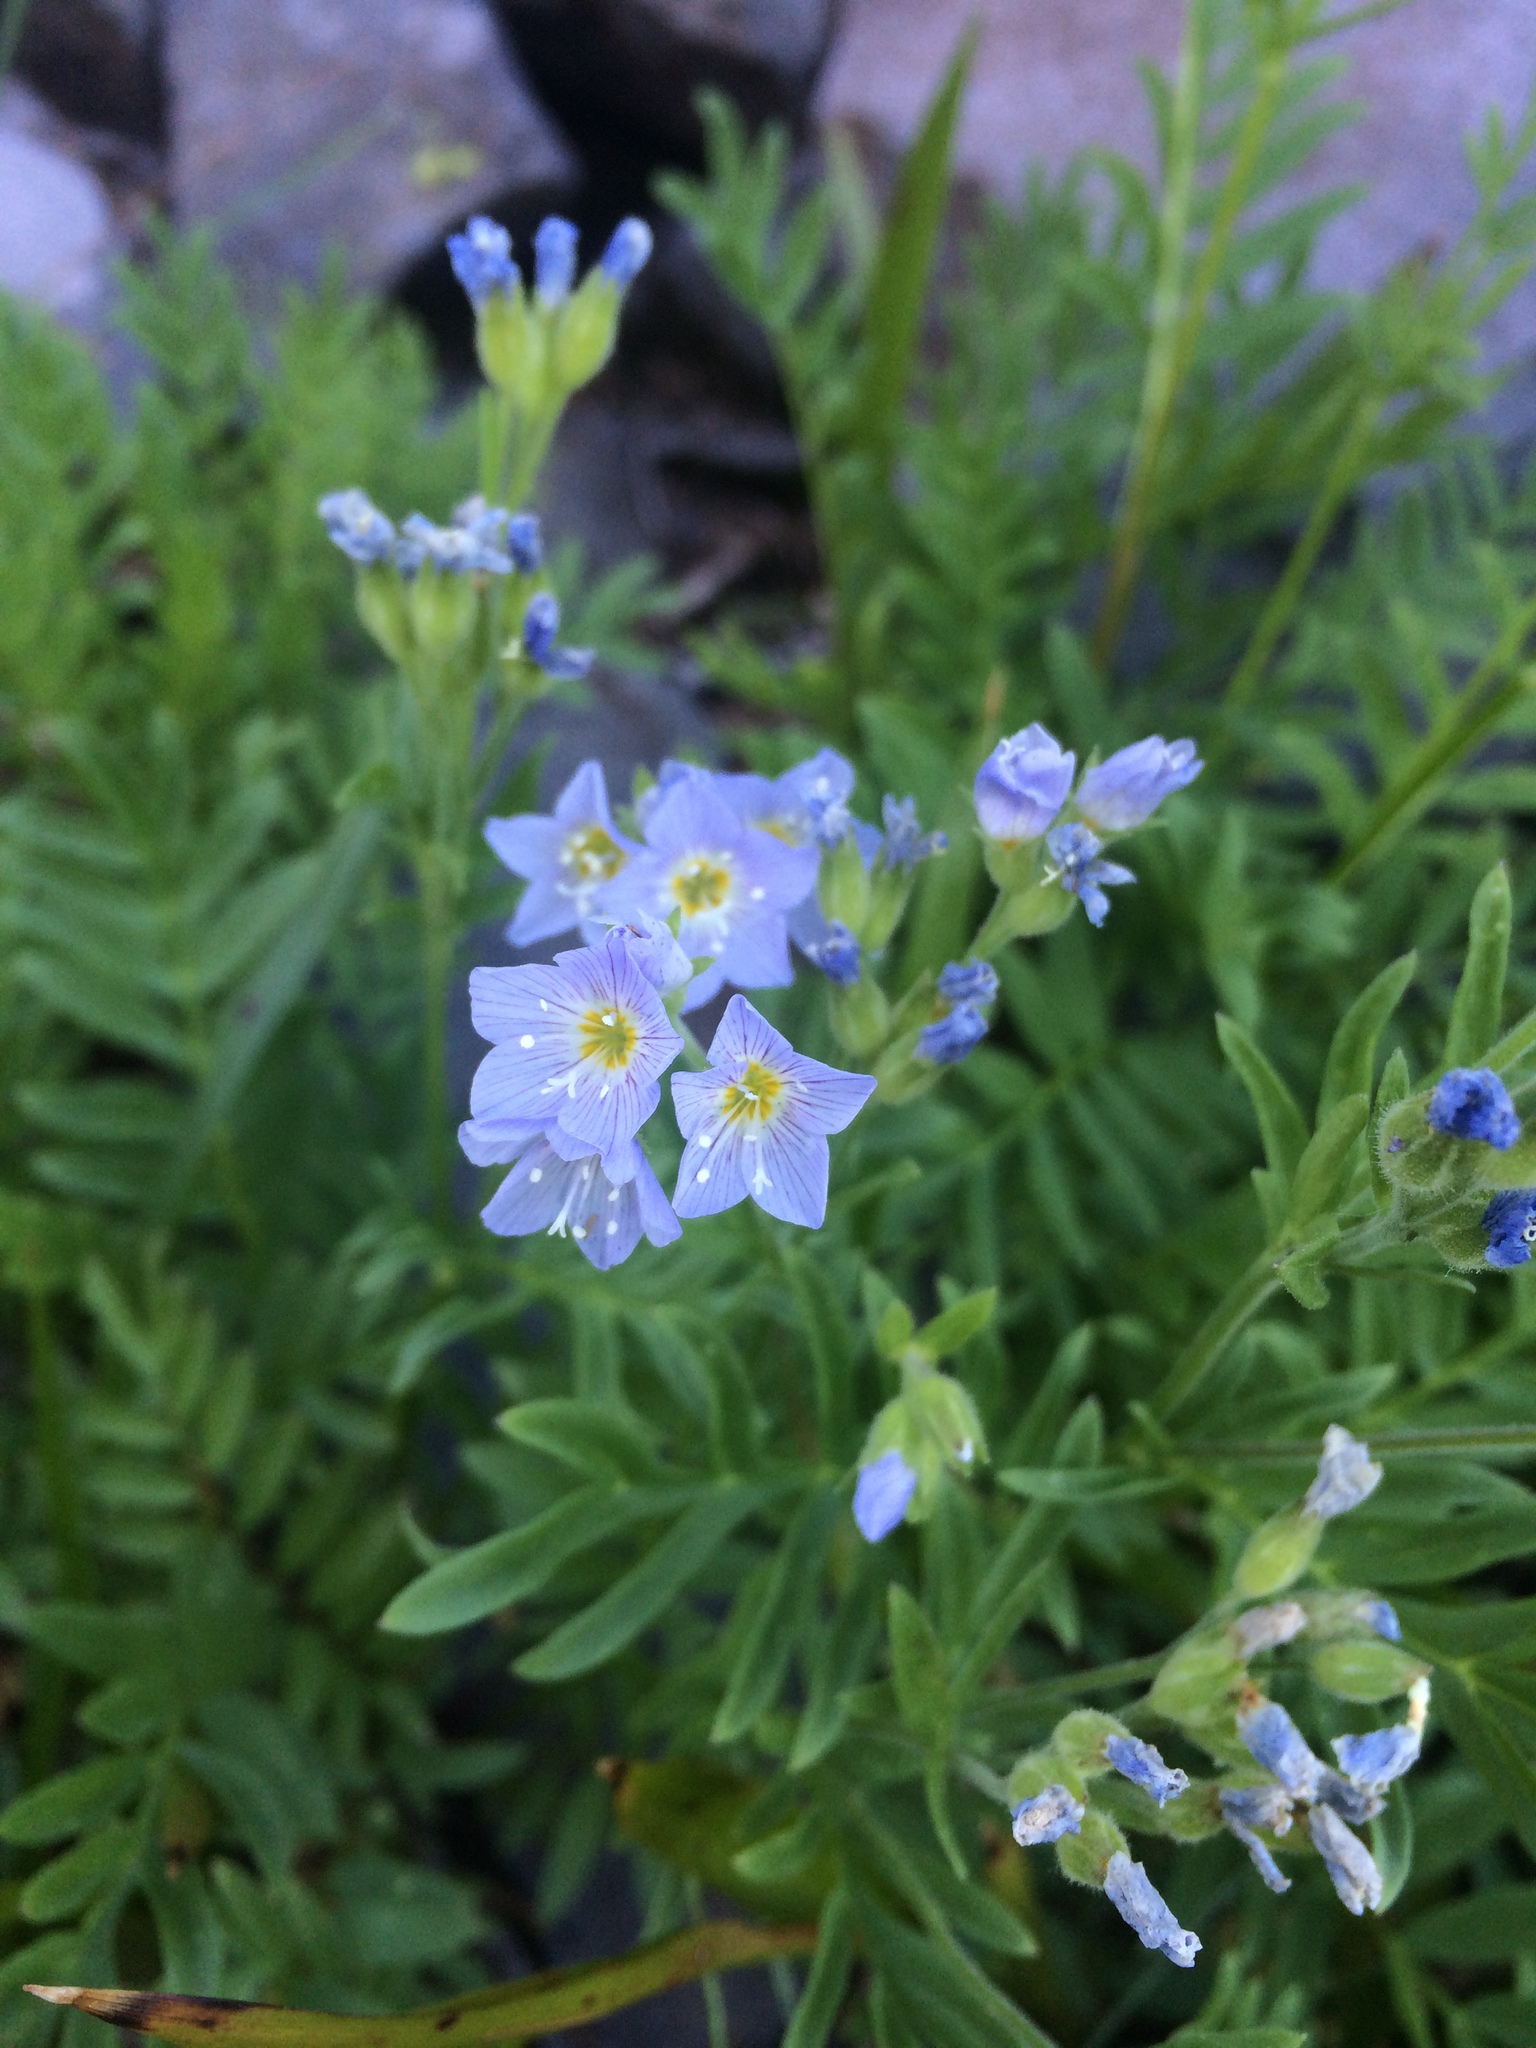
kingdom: Plantae
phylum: Tracheophyta
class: Magnoliopsida
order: Ericales
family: Polemoniaceae
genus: Polemonium
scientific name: Polemonium californicum
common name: California jacob's ladder
